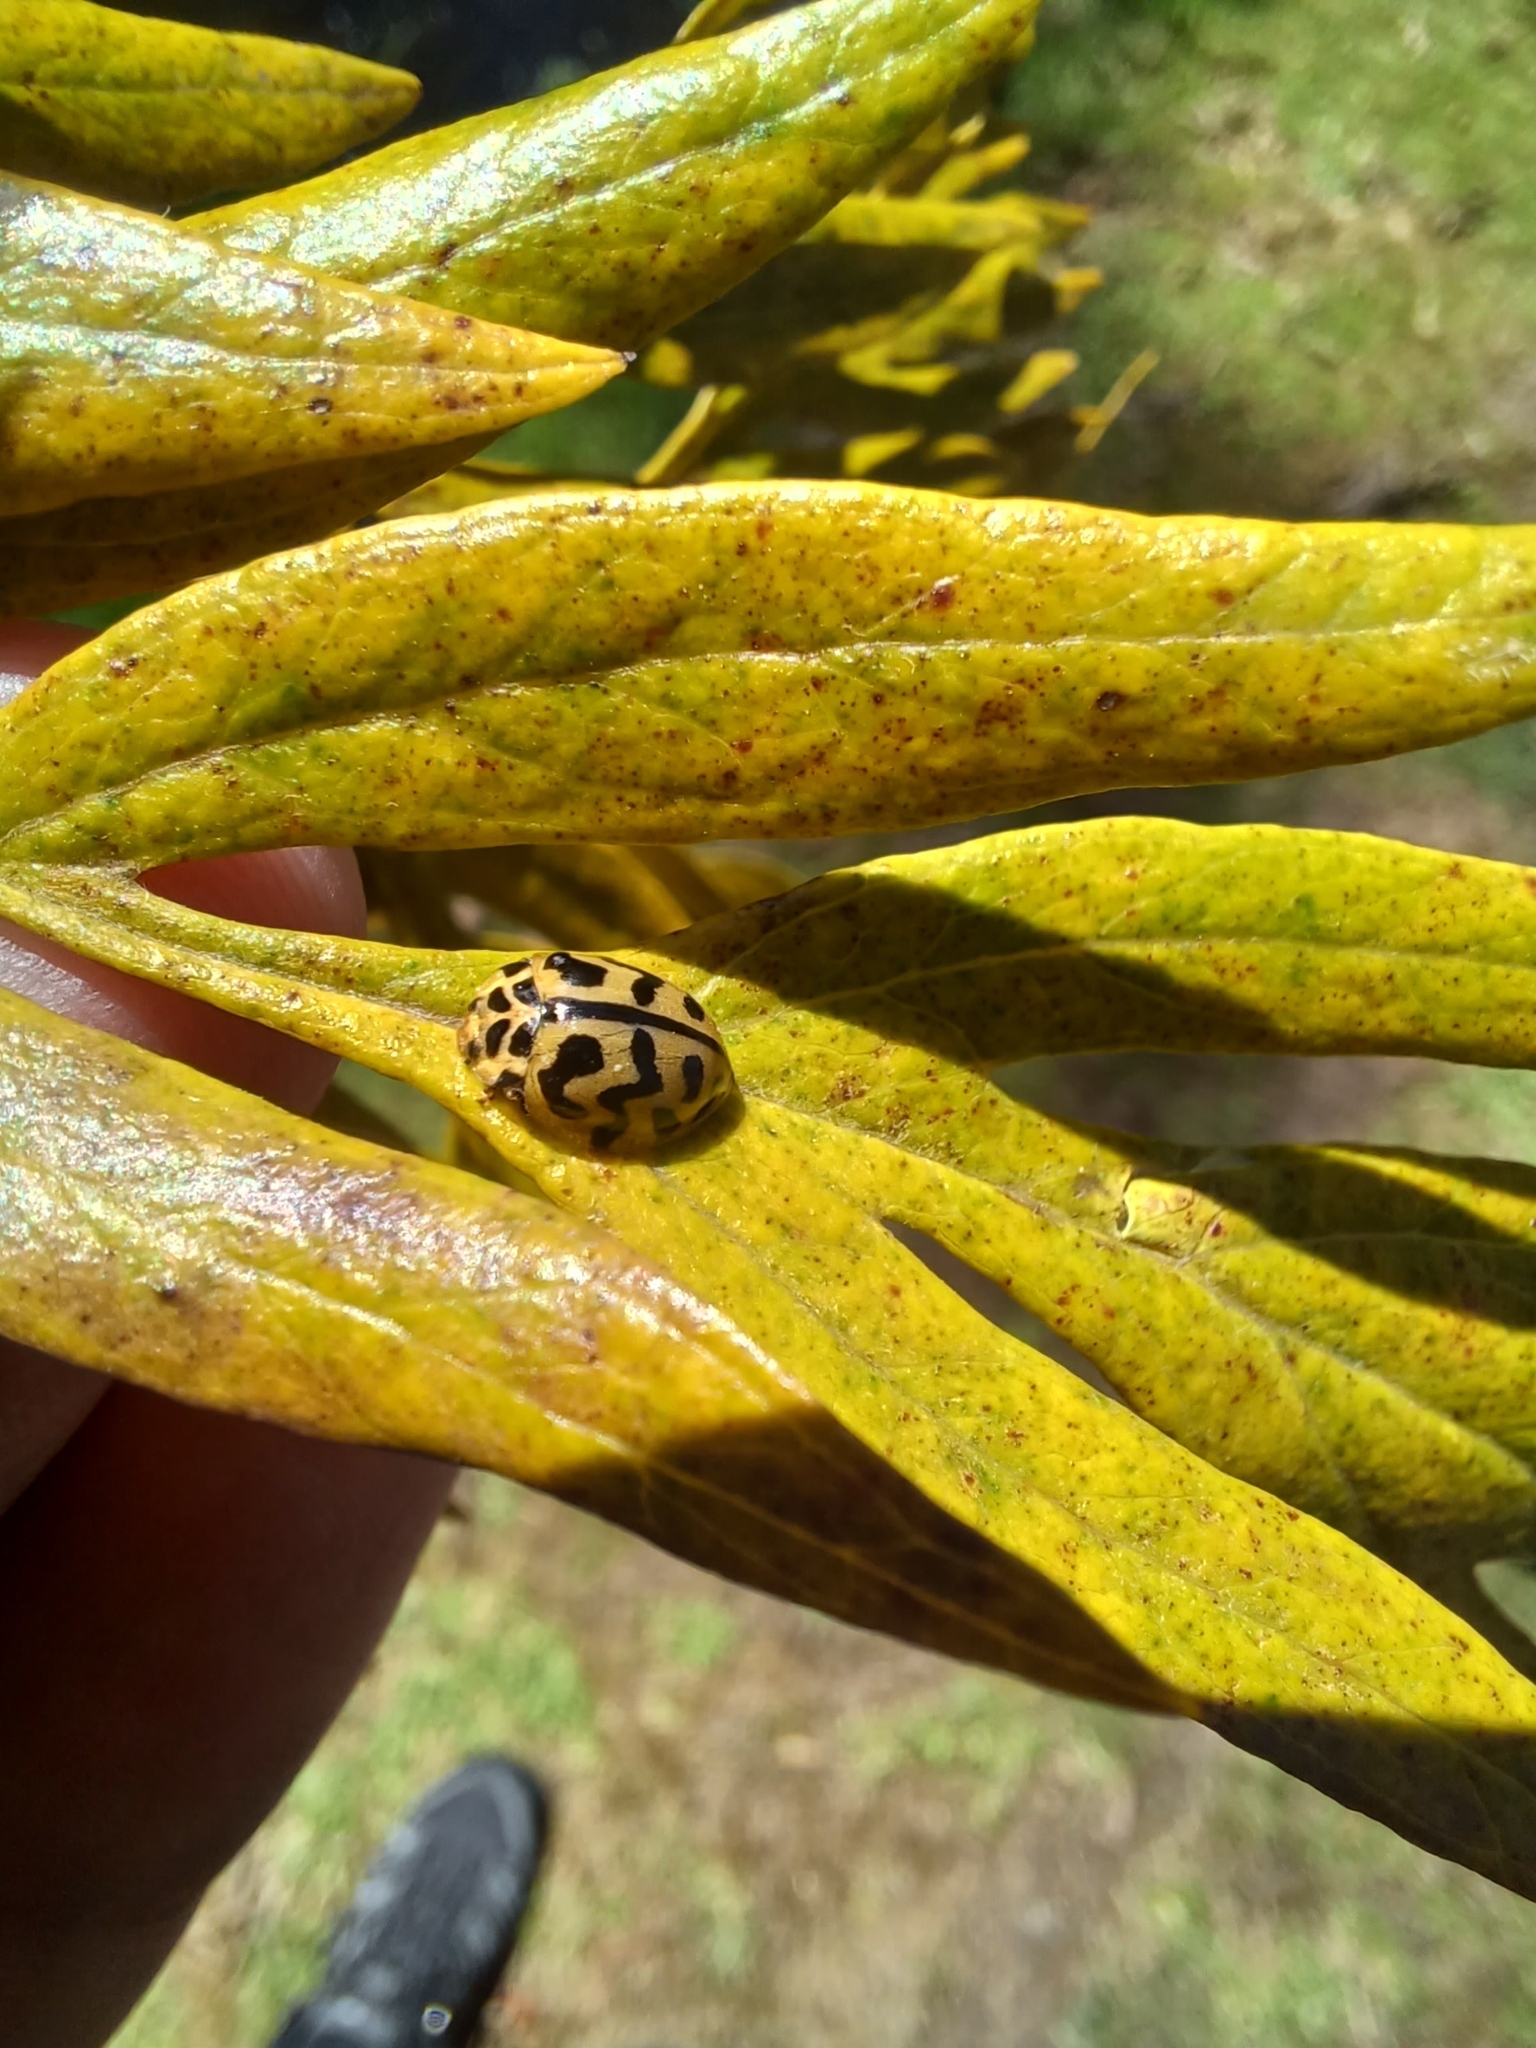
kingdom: Animalia
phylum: Arthropoda
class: Insecta
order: Coleoptera
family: Coccinellidae
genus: Cleobora
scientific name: Cleobora
